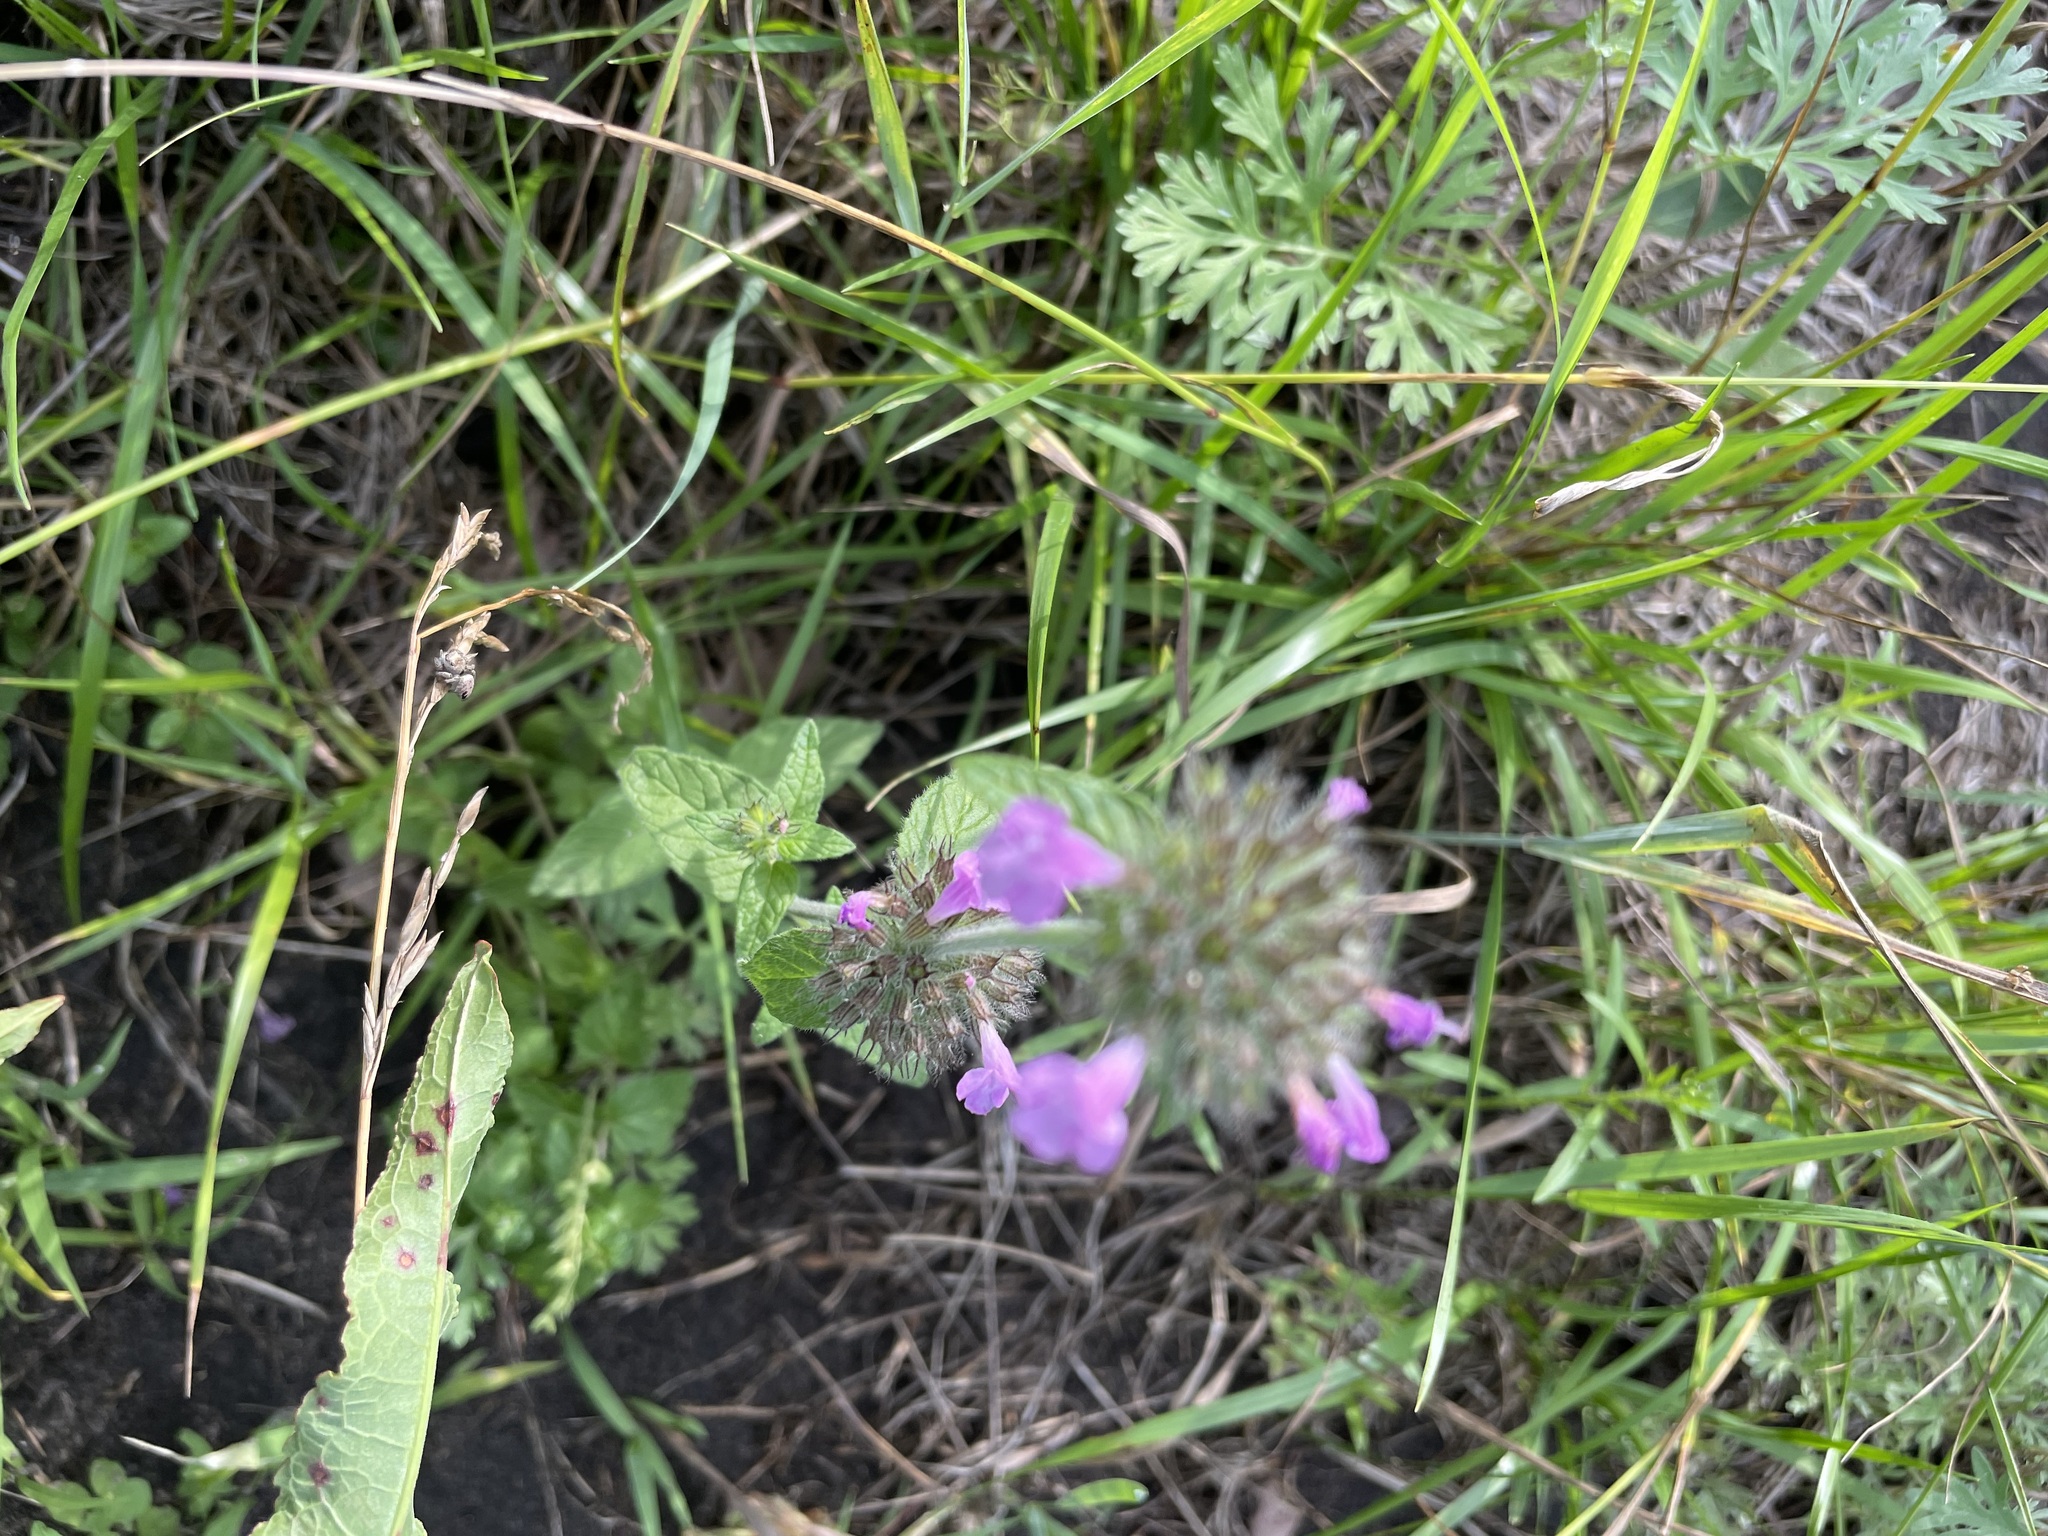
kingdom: Plantae
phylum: Tracheophyta
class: Magnoliopsida
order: Lamiales
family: Lamiaceae
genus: Clinopodium
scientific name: Clinopodium vulgare
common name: Wild basil
